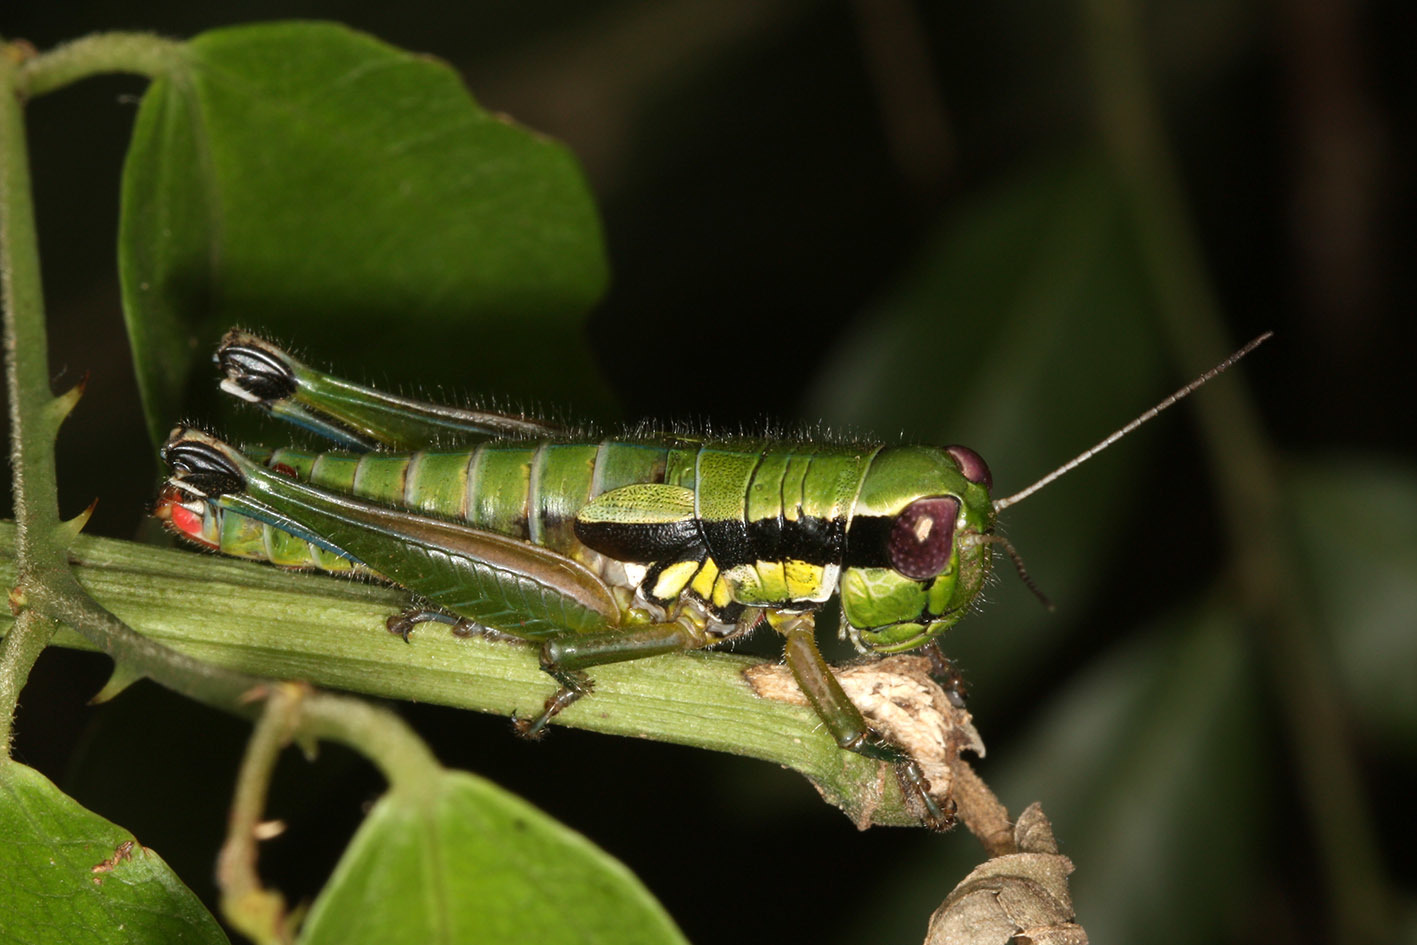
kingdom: Animalia
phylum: Arthropoda
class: Insecta
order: Orthoptera
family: Acrididae
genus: Parascopas
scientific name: Parascopas sanguineus
